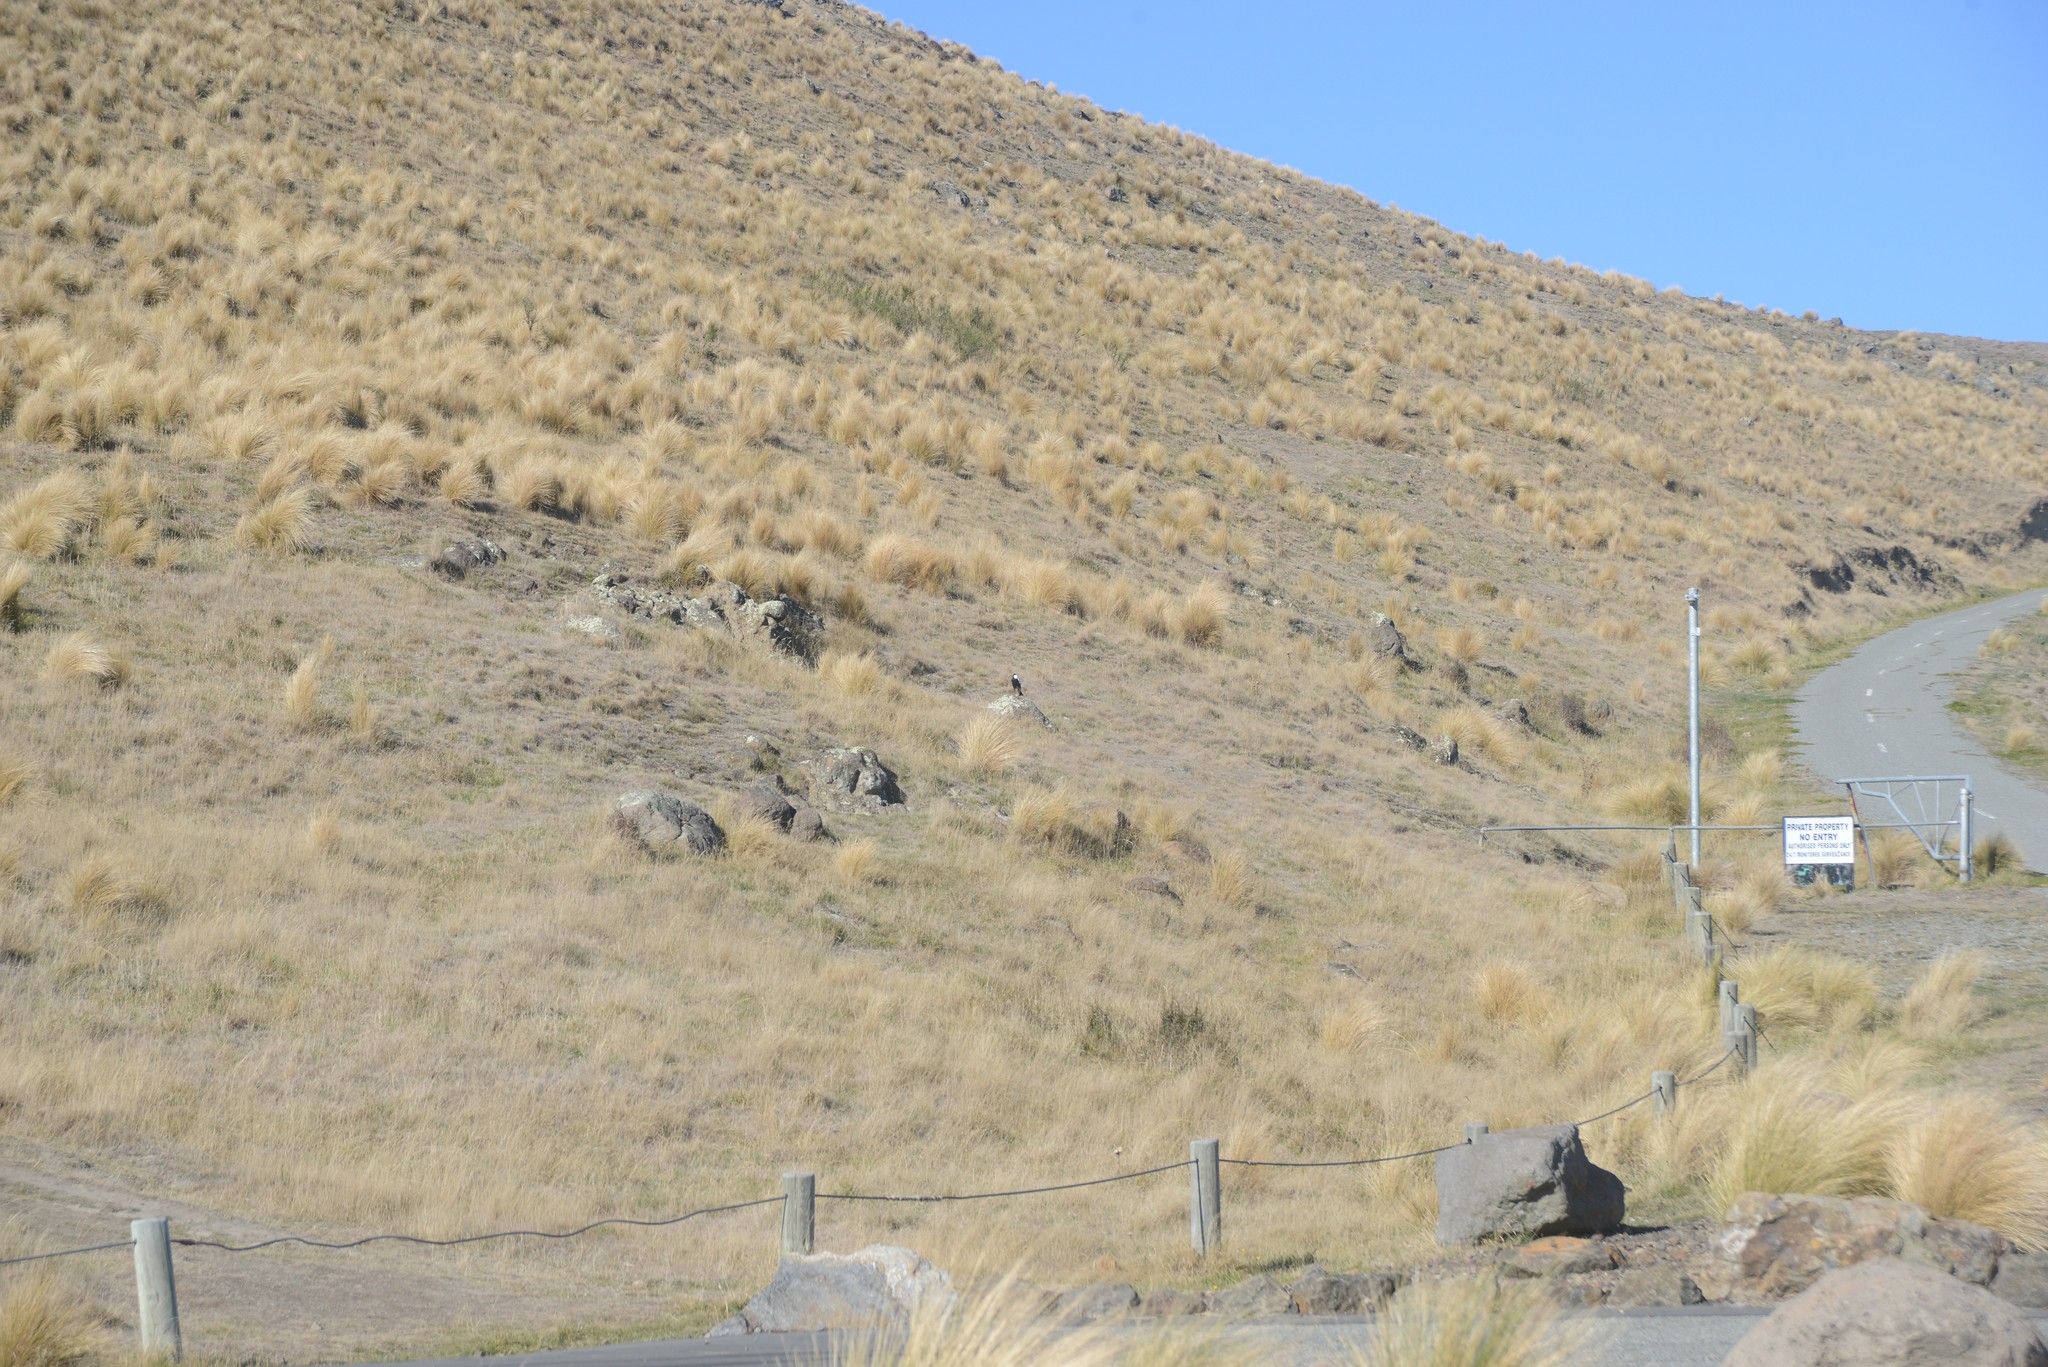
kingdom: Animalia
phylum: Chordata
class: Aves
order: Passeriformes
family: Cracticidae
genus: Gymnorhina
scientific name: Gymnorhina tibicen
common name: Australian magpie
